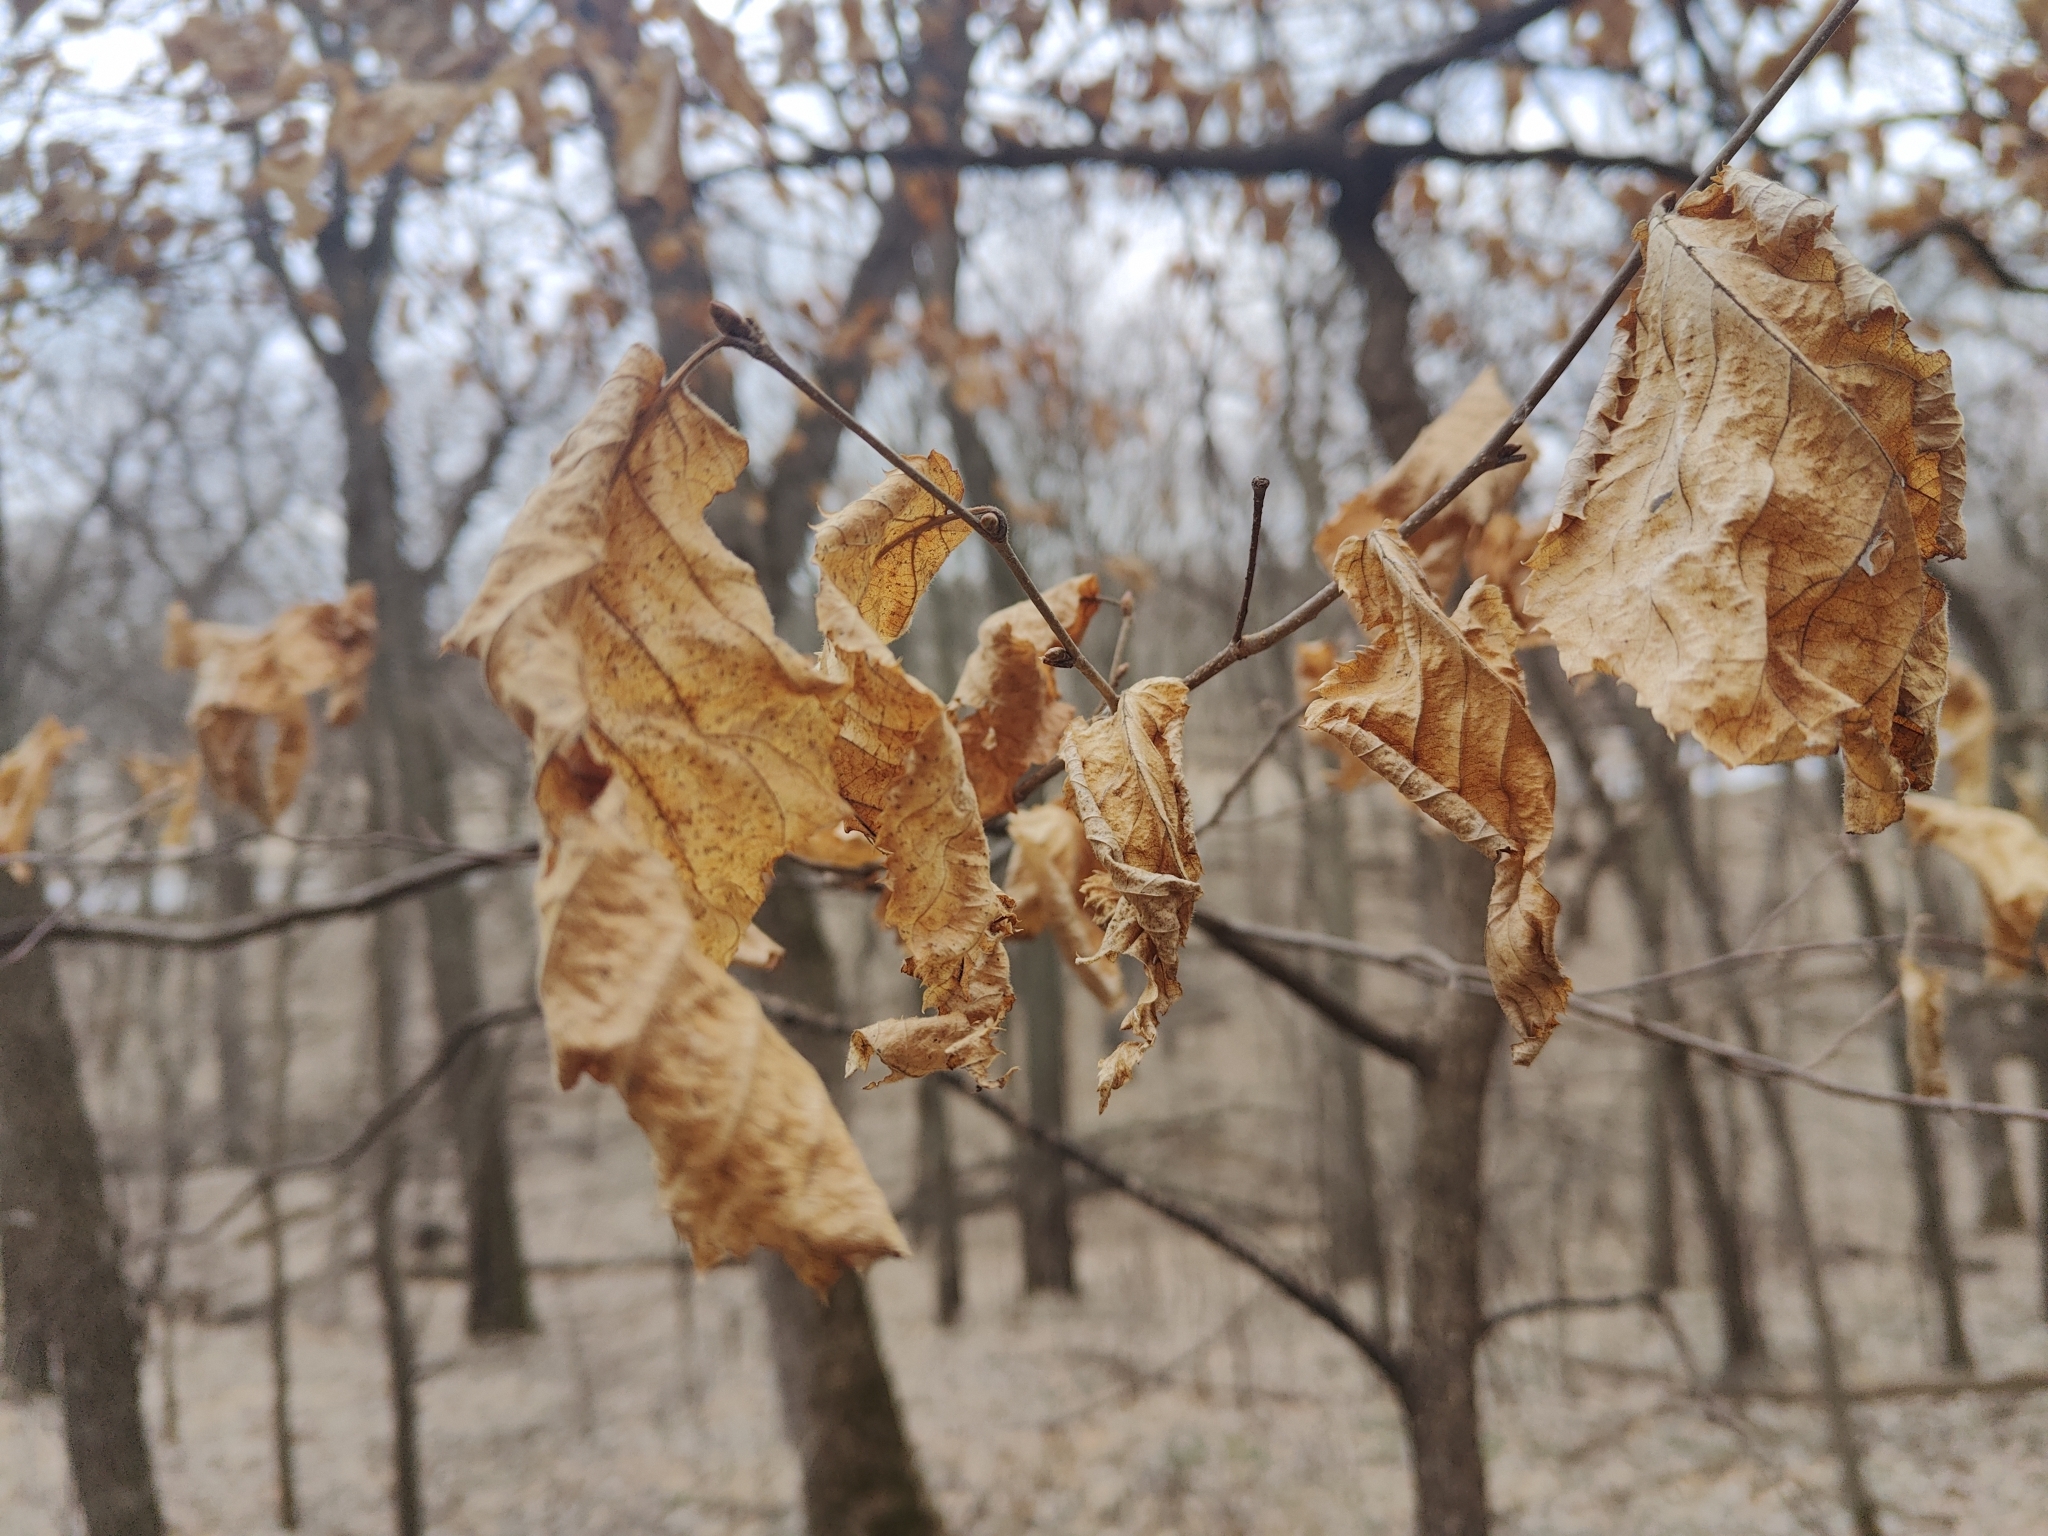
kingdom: Plantae
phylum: Tracheophyta
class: Magnoliopsida
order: Fagales
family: Betulaceae
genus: Ostrya
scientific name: Ostrya virginiana
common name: Ironwood
